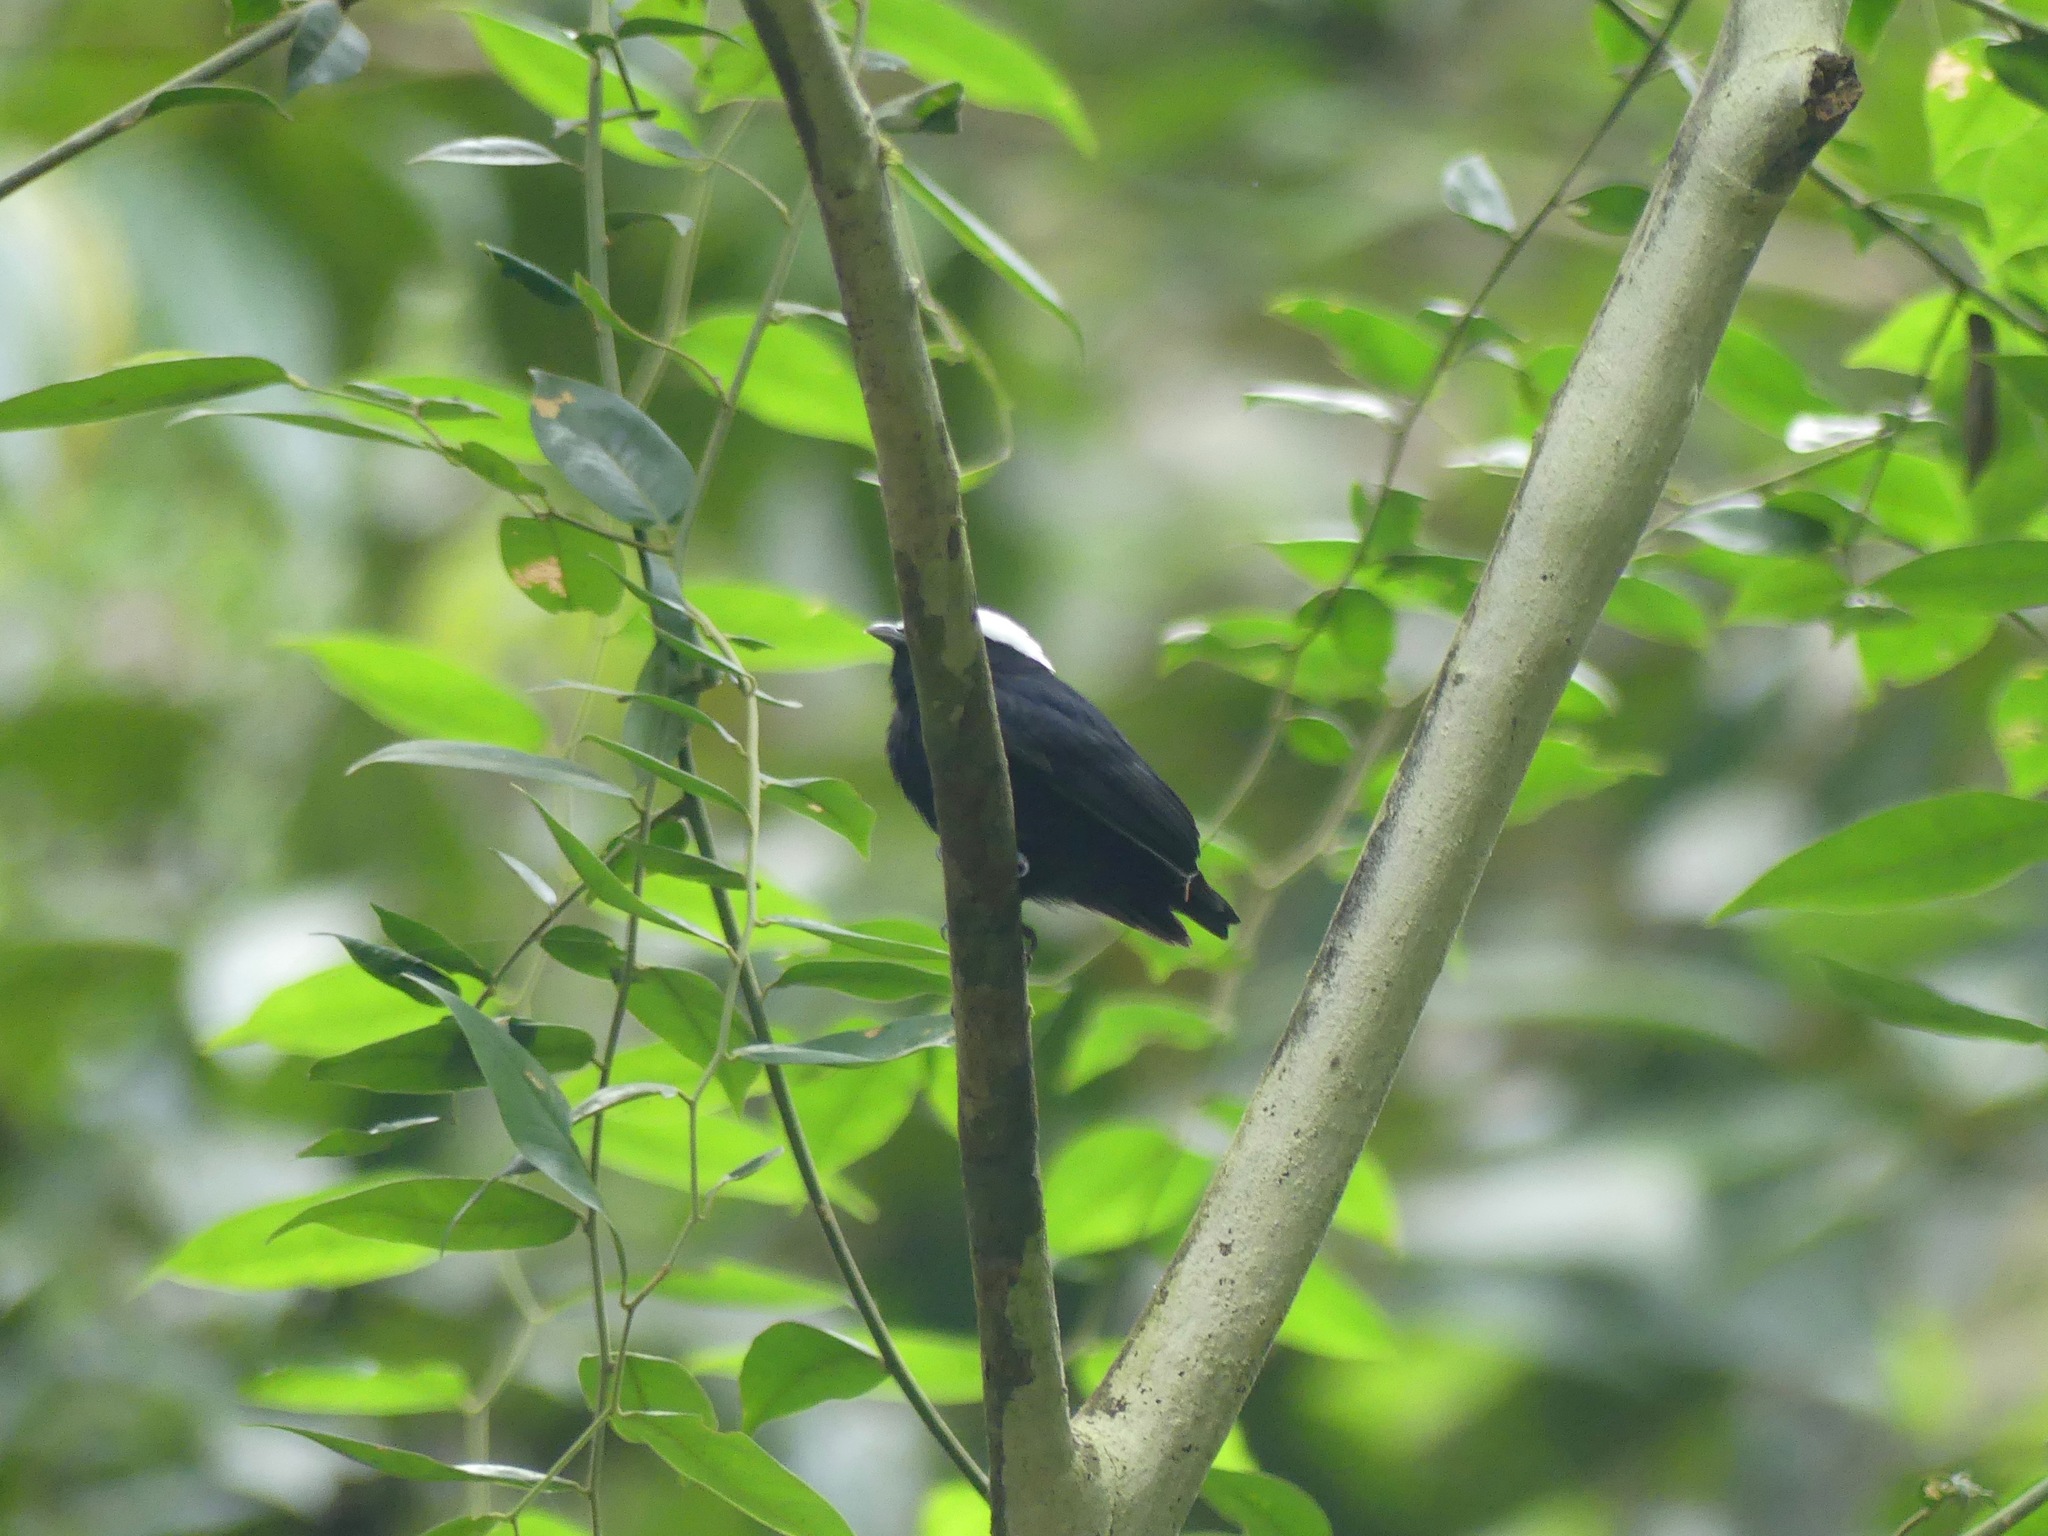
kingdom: Animalia
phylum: Chordata
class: Aves
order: Passeriformes
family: Pipridae
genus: Pipra
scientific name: Pipra pipra
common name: White-crowned manakin
